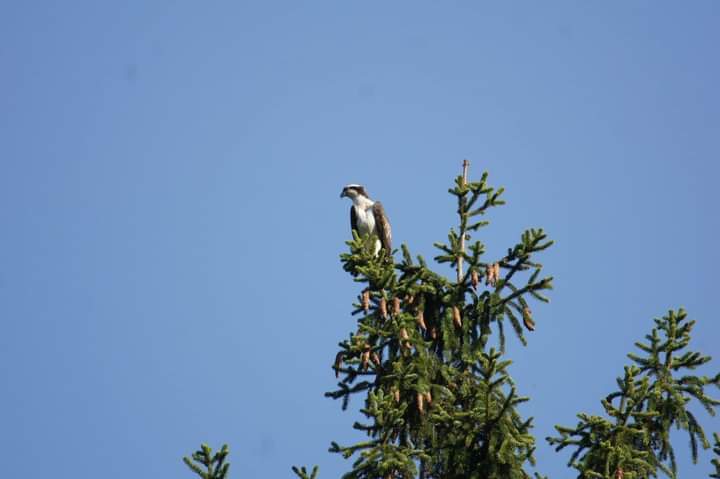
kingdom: Animalia
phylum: Chordata
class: Aves
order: Accipitriformes
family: Pandionidae
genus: Pandion
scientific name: Pandion haliaetus
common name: Osprey
